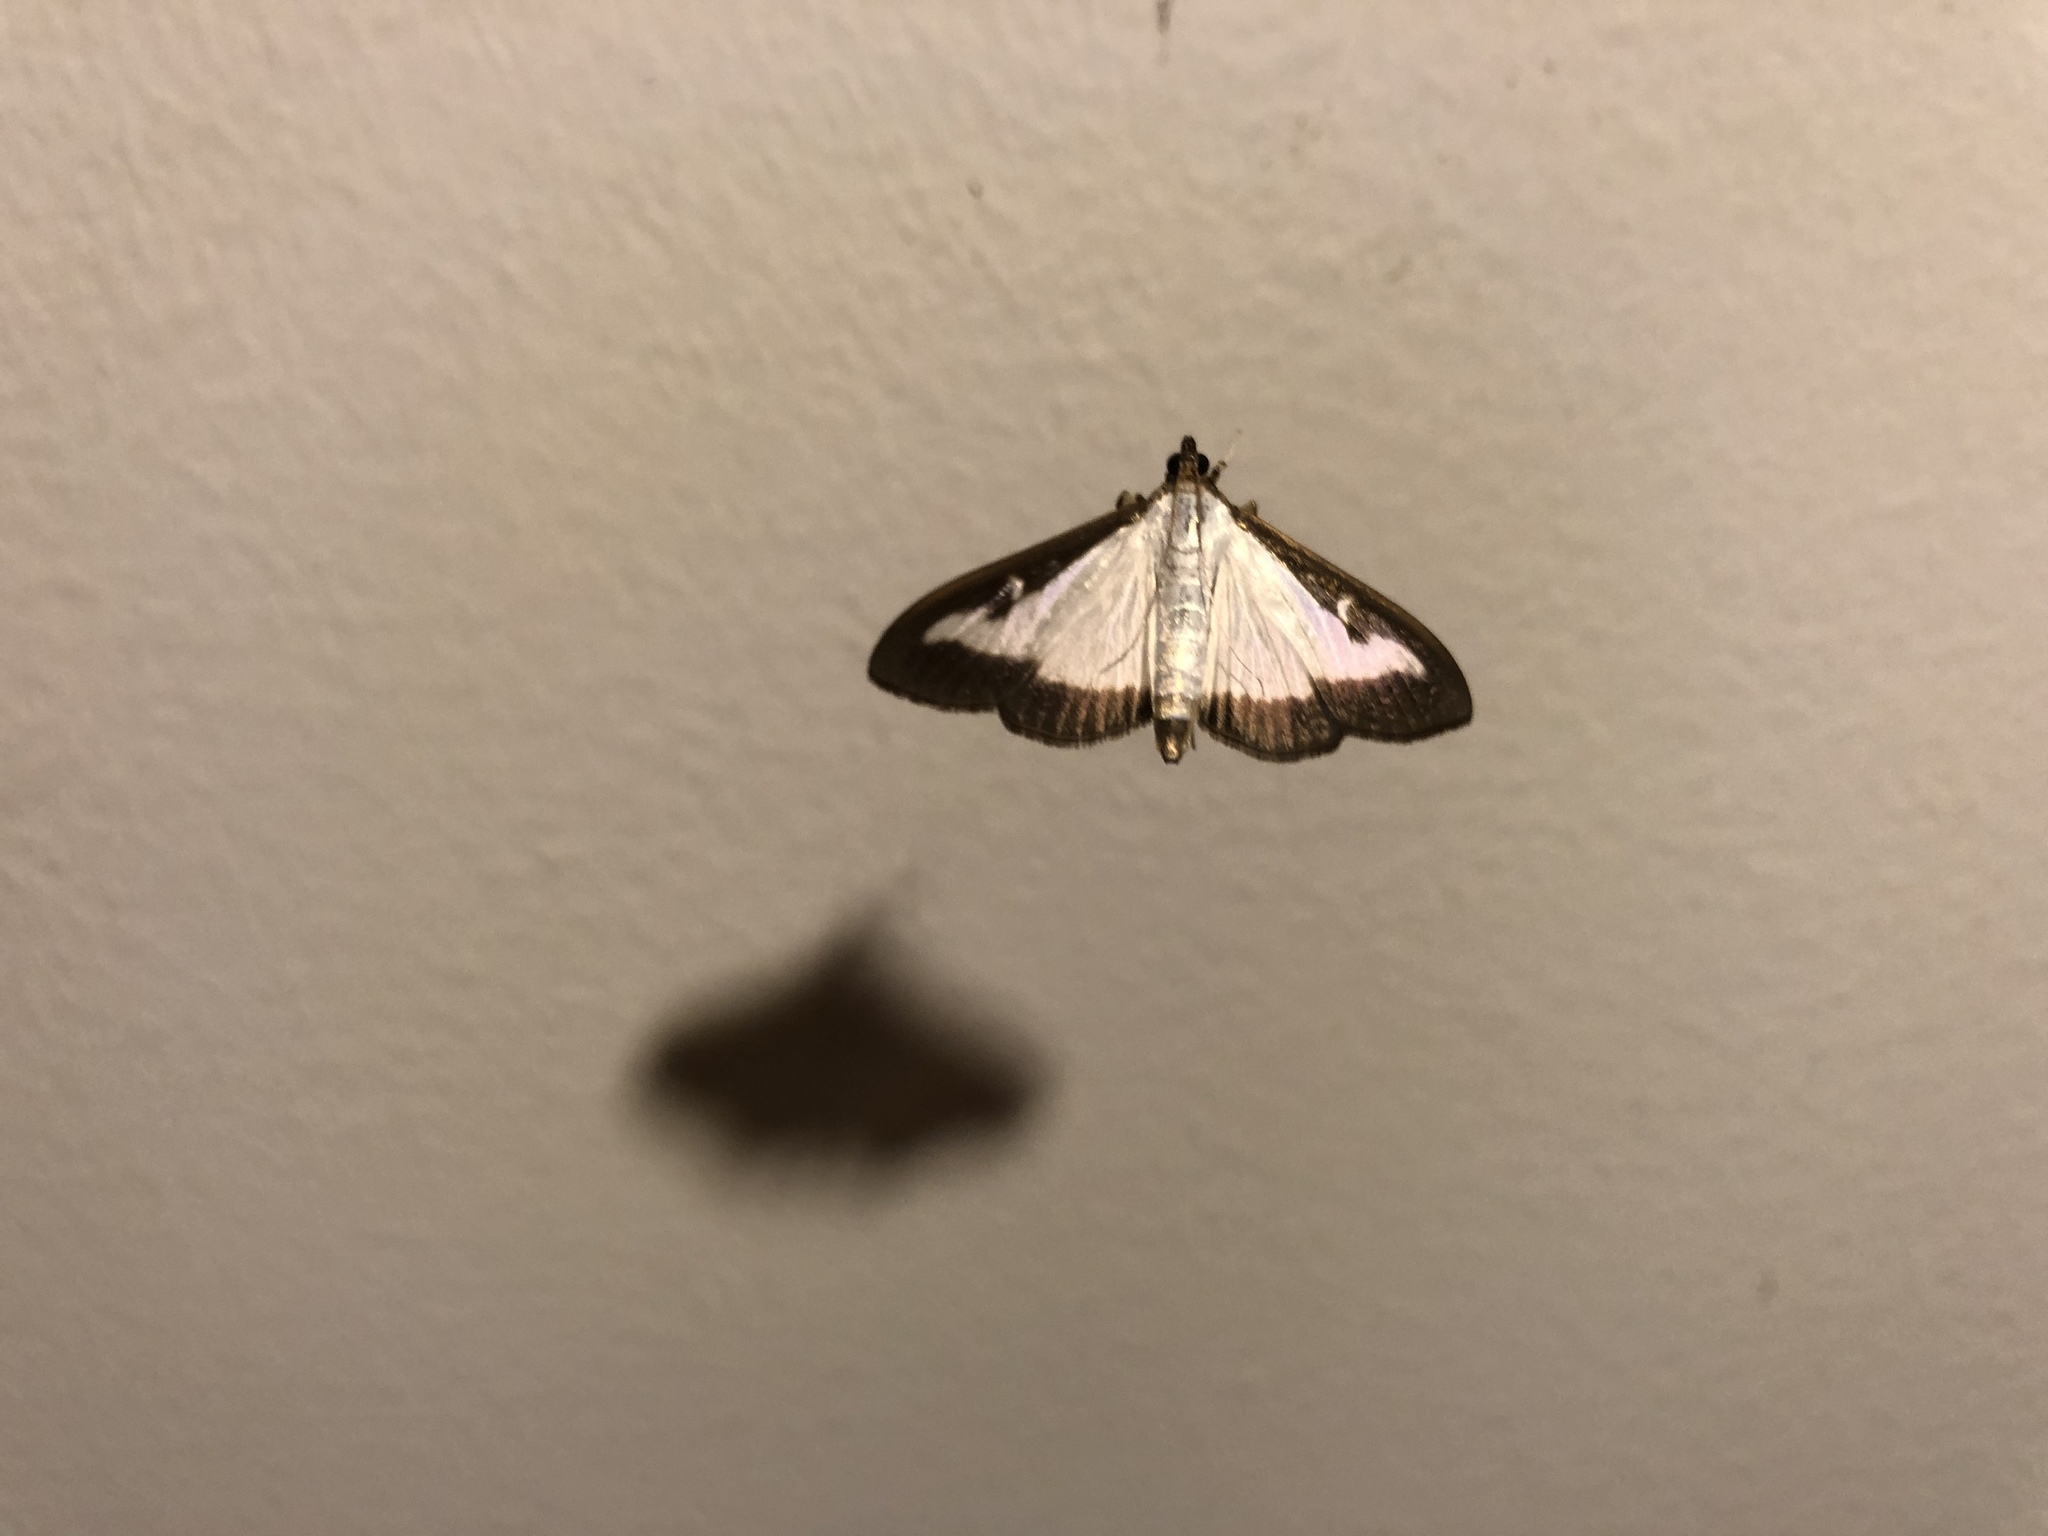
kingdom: Animalia
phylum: Arthropoda
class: Insecta
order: Lepidoptera
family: Crambidae
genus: Cydalima
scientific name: Cydalima perspectalis
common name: Box tree moth
